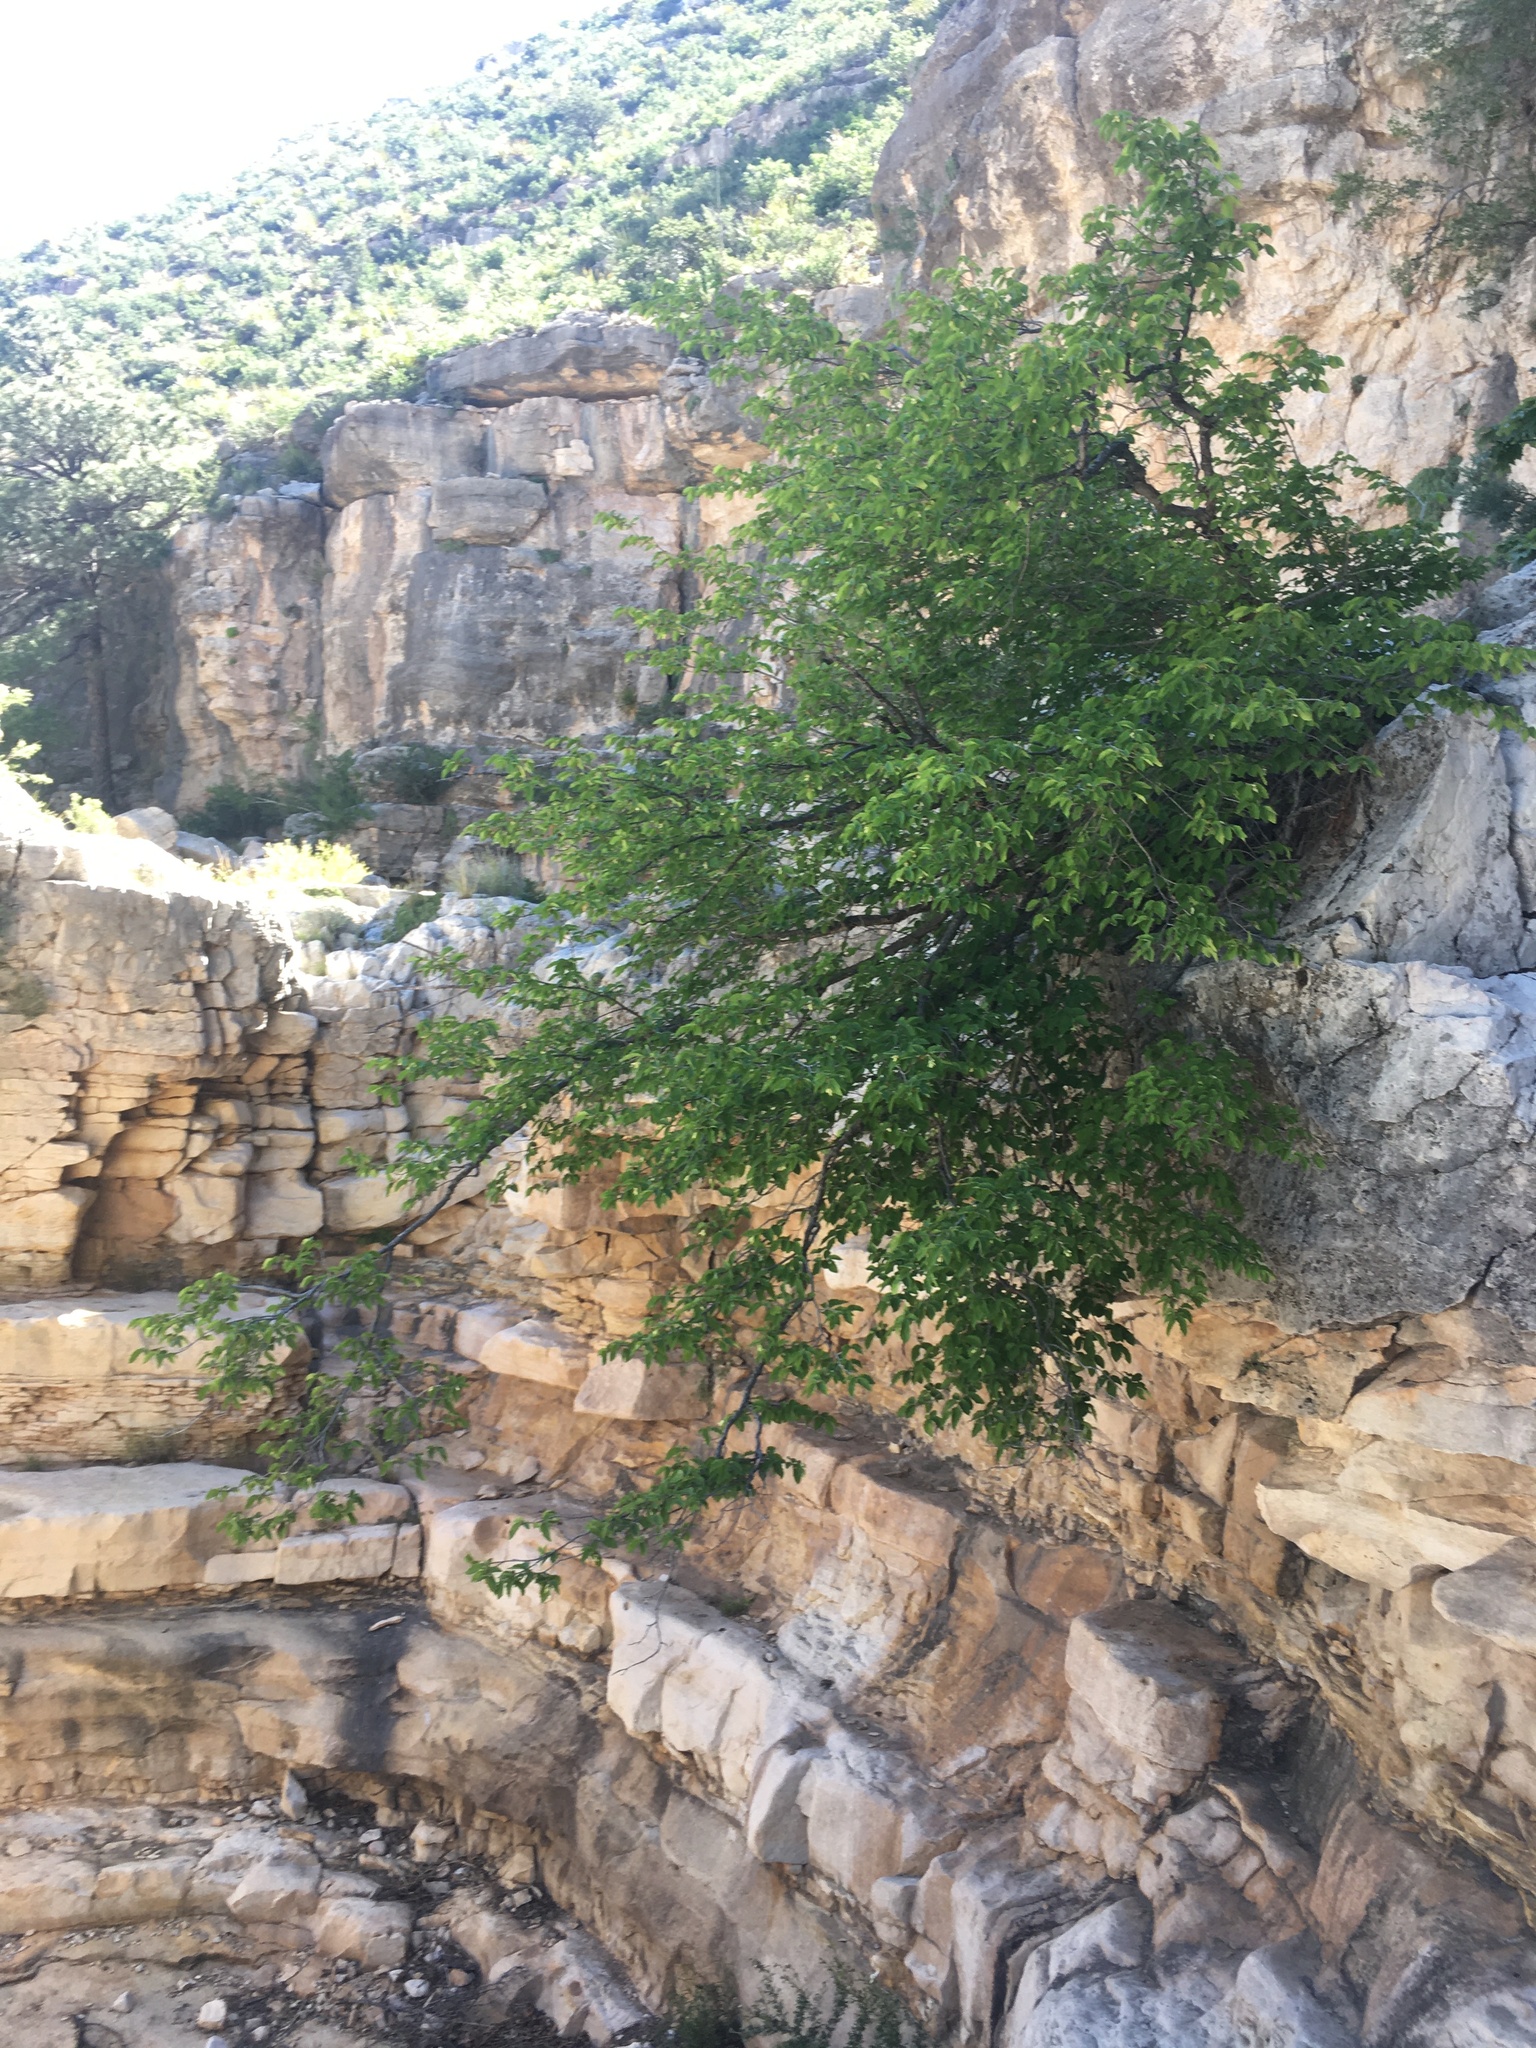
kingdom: Plantae
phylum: Tracheophyta
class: Magnoliopsida
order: Fagales
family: Betulaceae
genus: Ostrya
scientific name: Ostrya knowltonii
